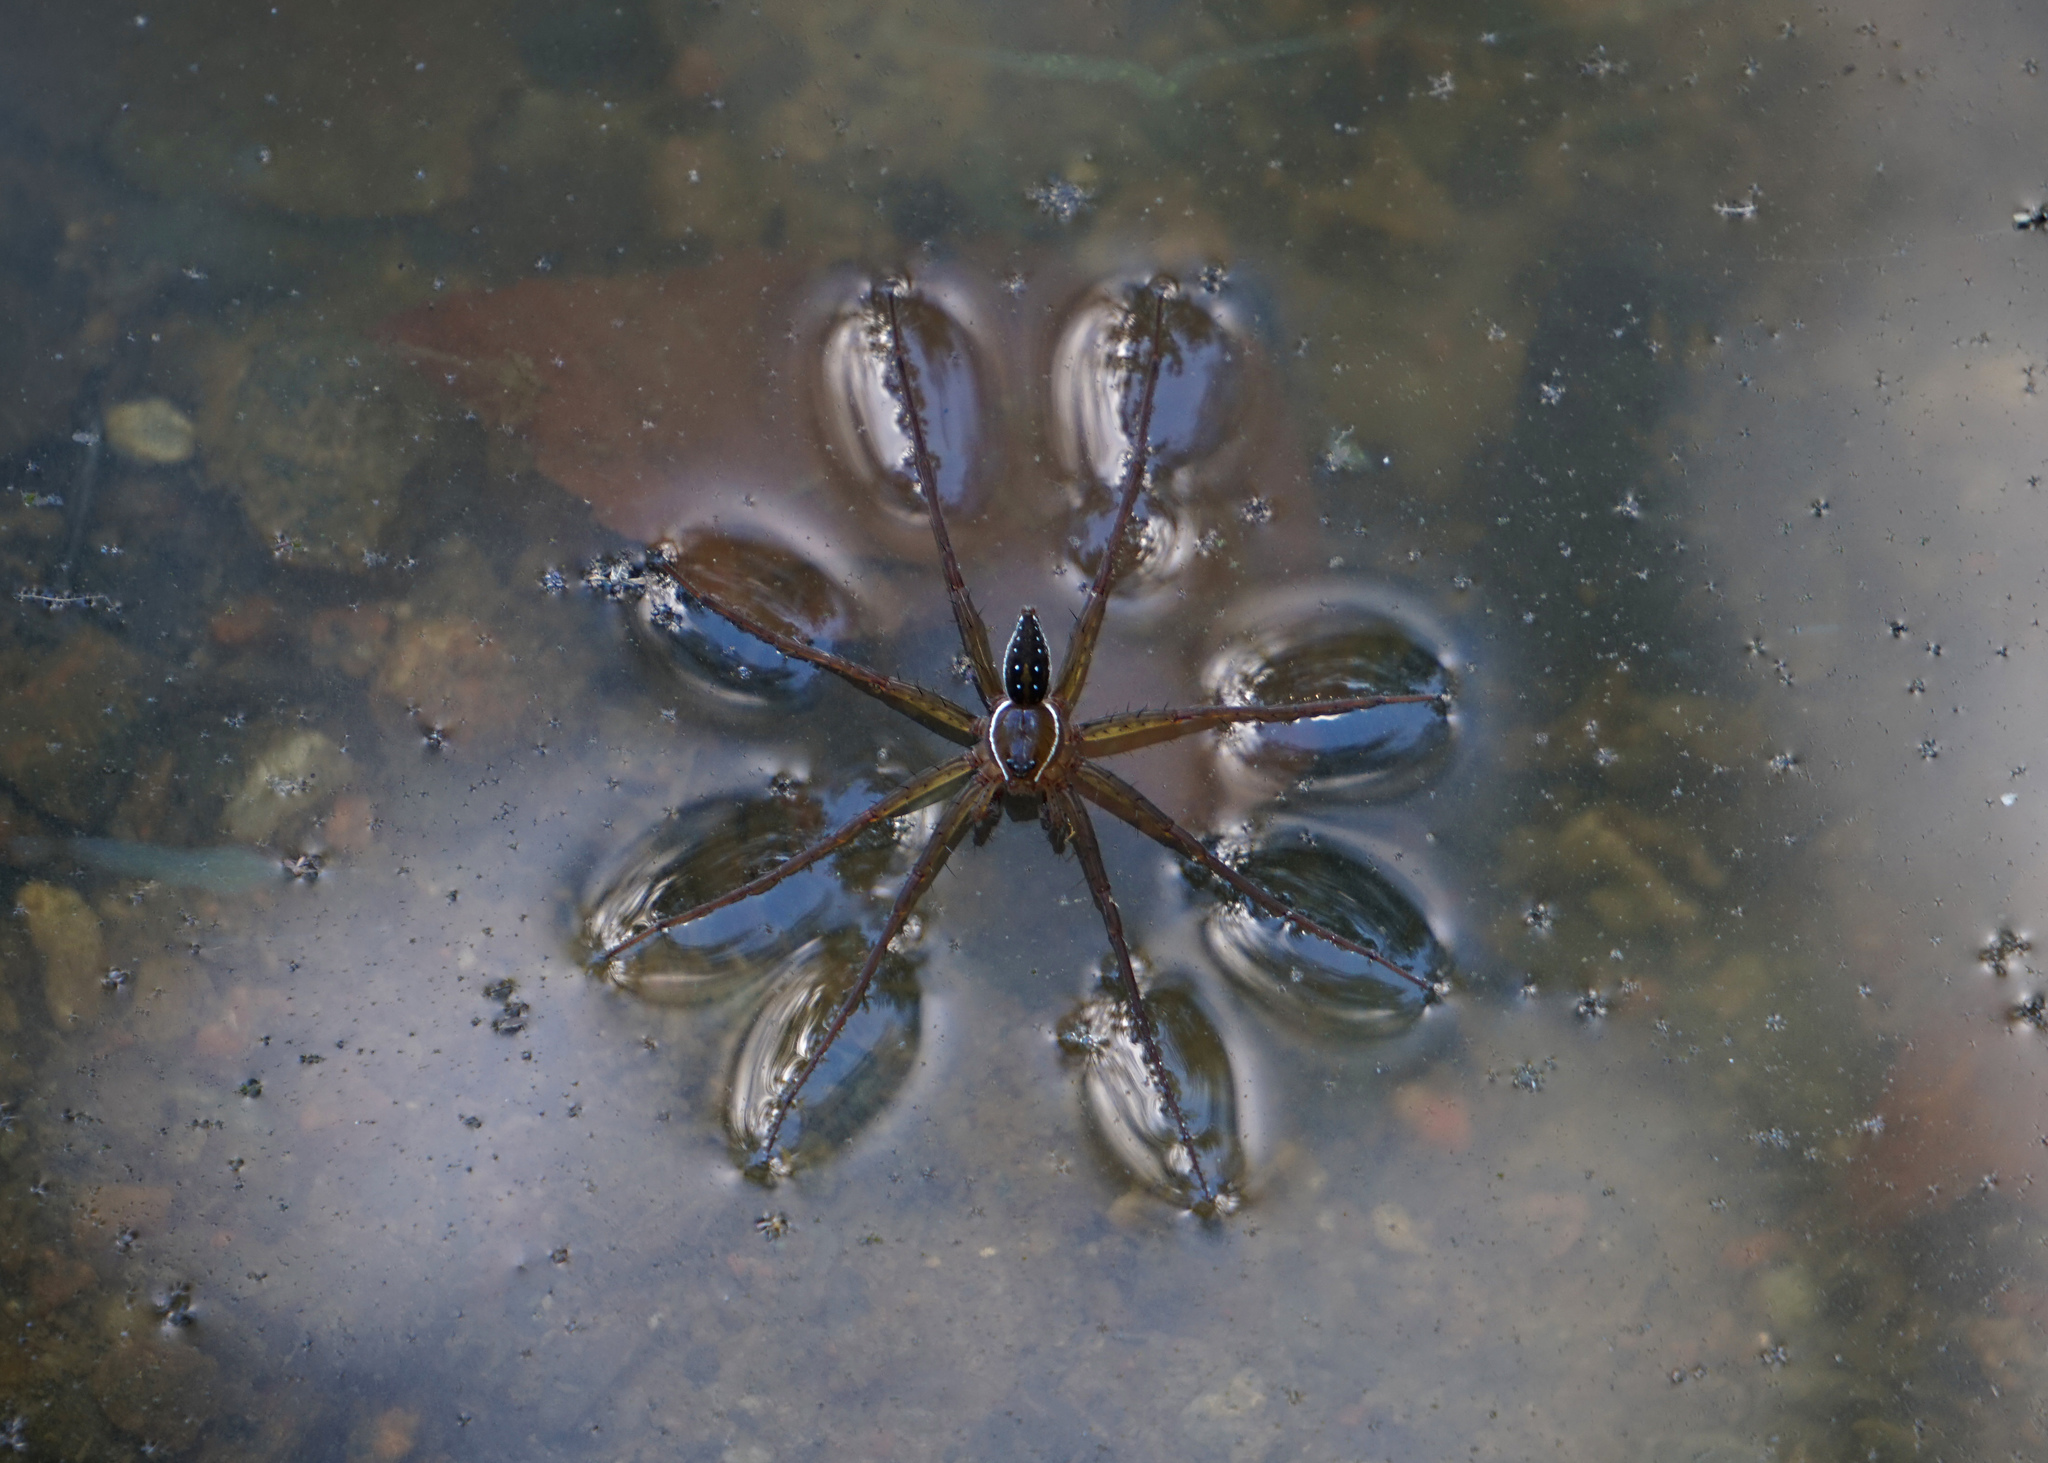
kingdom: Animalia
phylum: Arthropoda
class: Arachnida
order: Araneae
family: Pisauridae
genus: Dolomedes
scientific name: Dolomedes triton
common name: Six-spotted fishing spider
